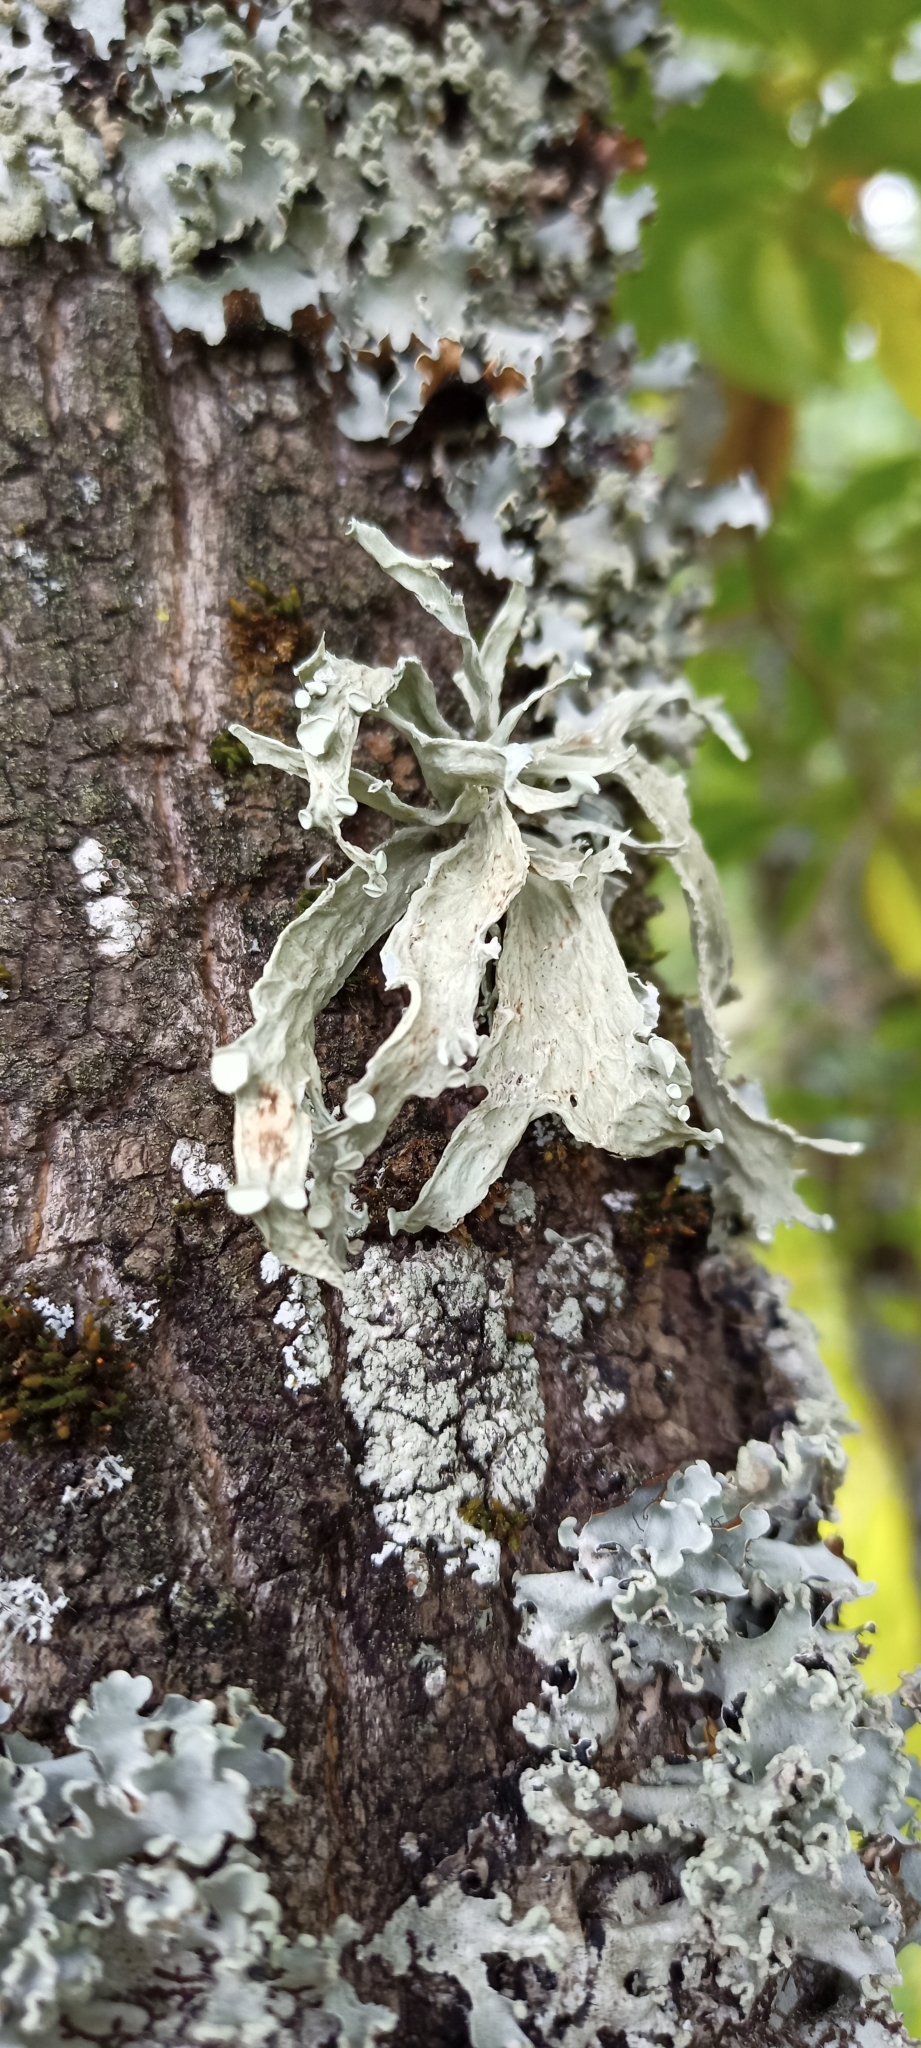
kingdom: Fungi
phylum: Ascomycota
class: Lecanoromycetes
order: Lecanorales
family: Ramalinaceae
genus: Ramalina
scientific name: Ramalina fraxinea
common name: Cartilage lichen
